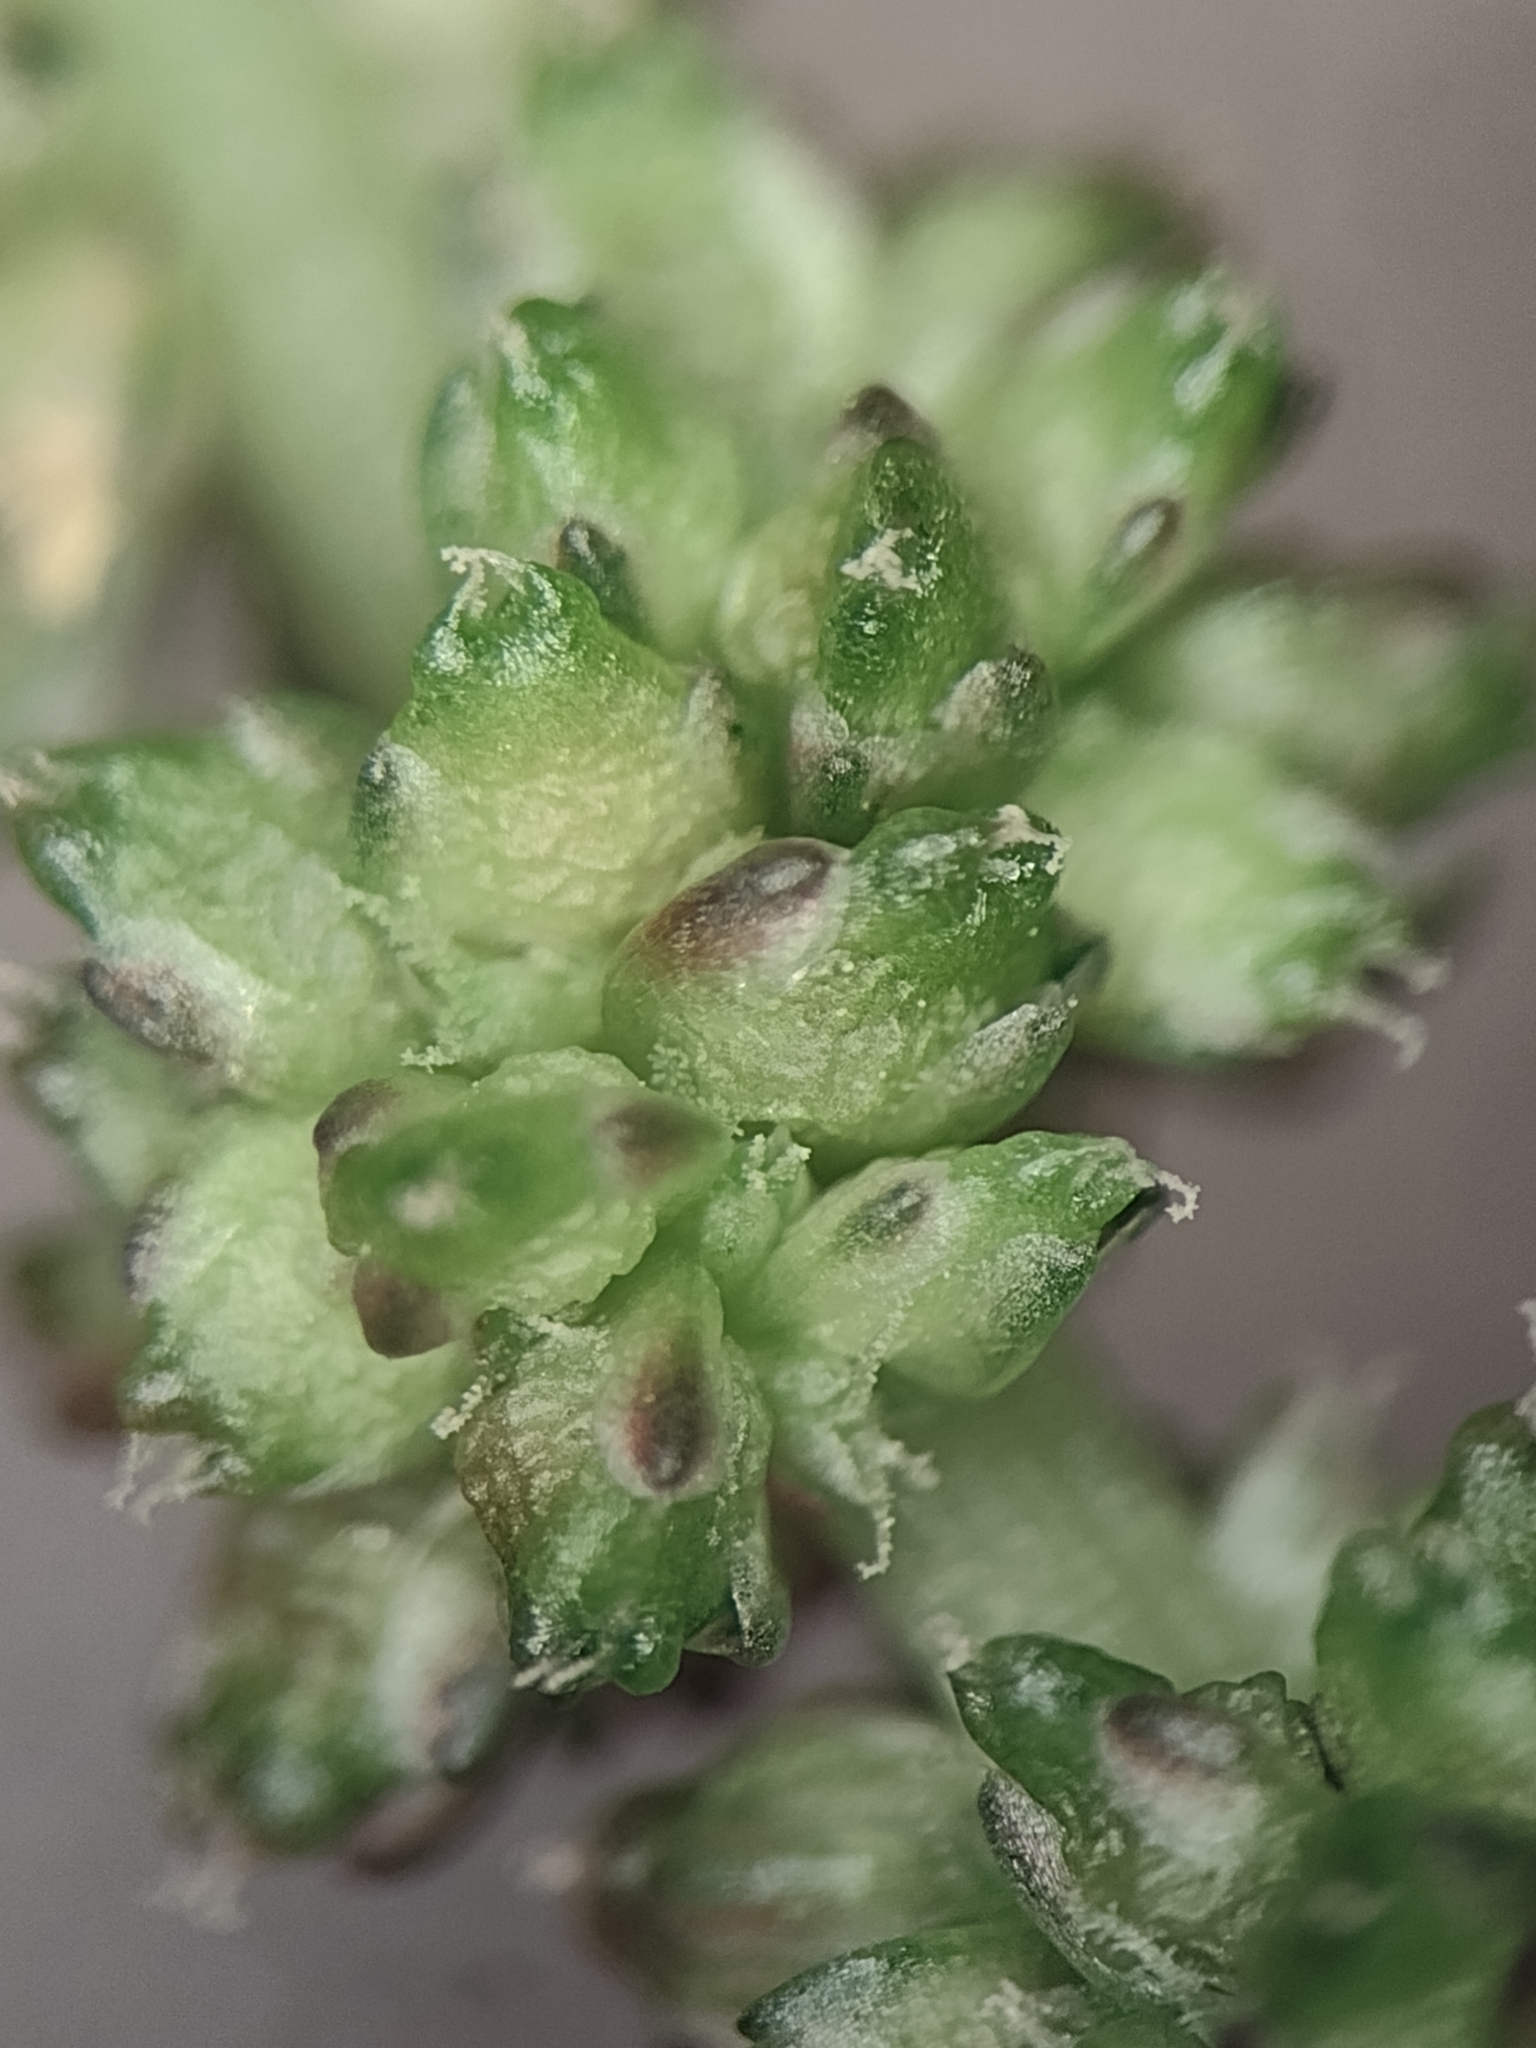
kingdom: Plantae
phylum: Tracheophyta
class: Magnoliopsida
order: Caryophyllales
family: Amaranthaceae
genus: Amaranthus
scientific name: Amaranthus blitum
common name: Purple amaranth
